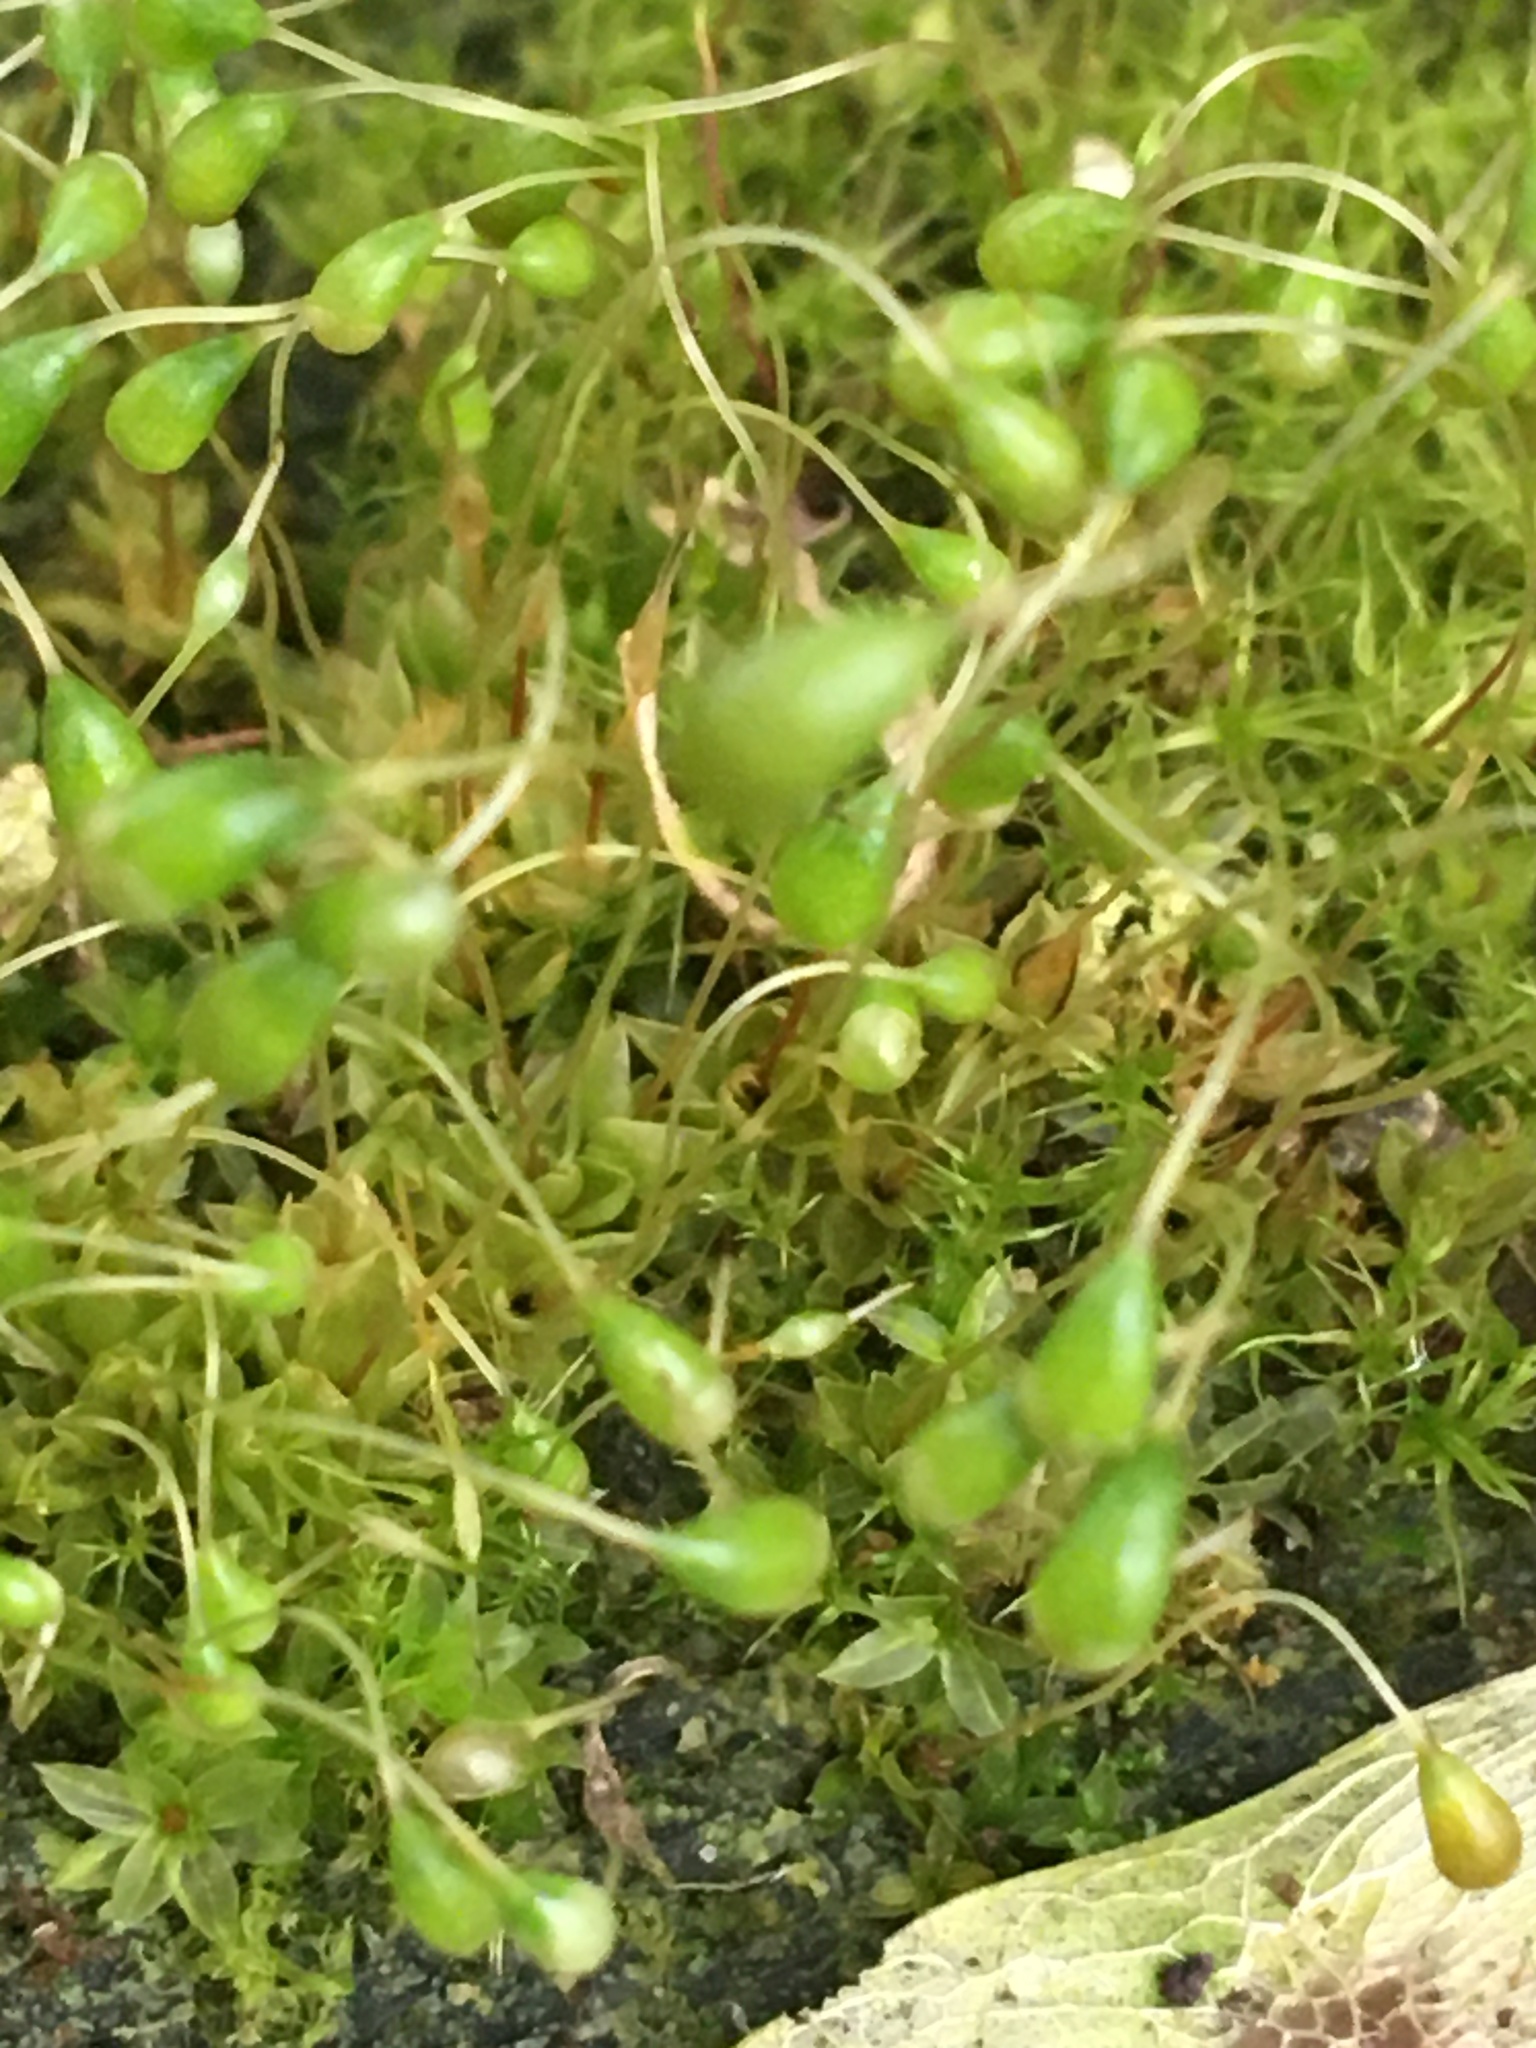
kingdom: Plantae
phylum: Bryophyta
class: Bryopsida
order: Funariales
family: Funariaceae
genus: Funaria
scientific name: Funaria hygrometrica
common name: Common cord moss
